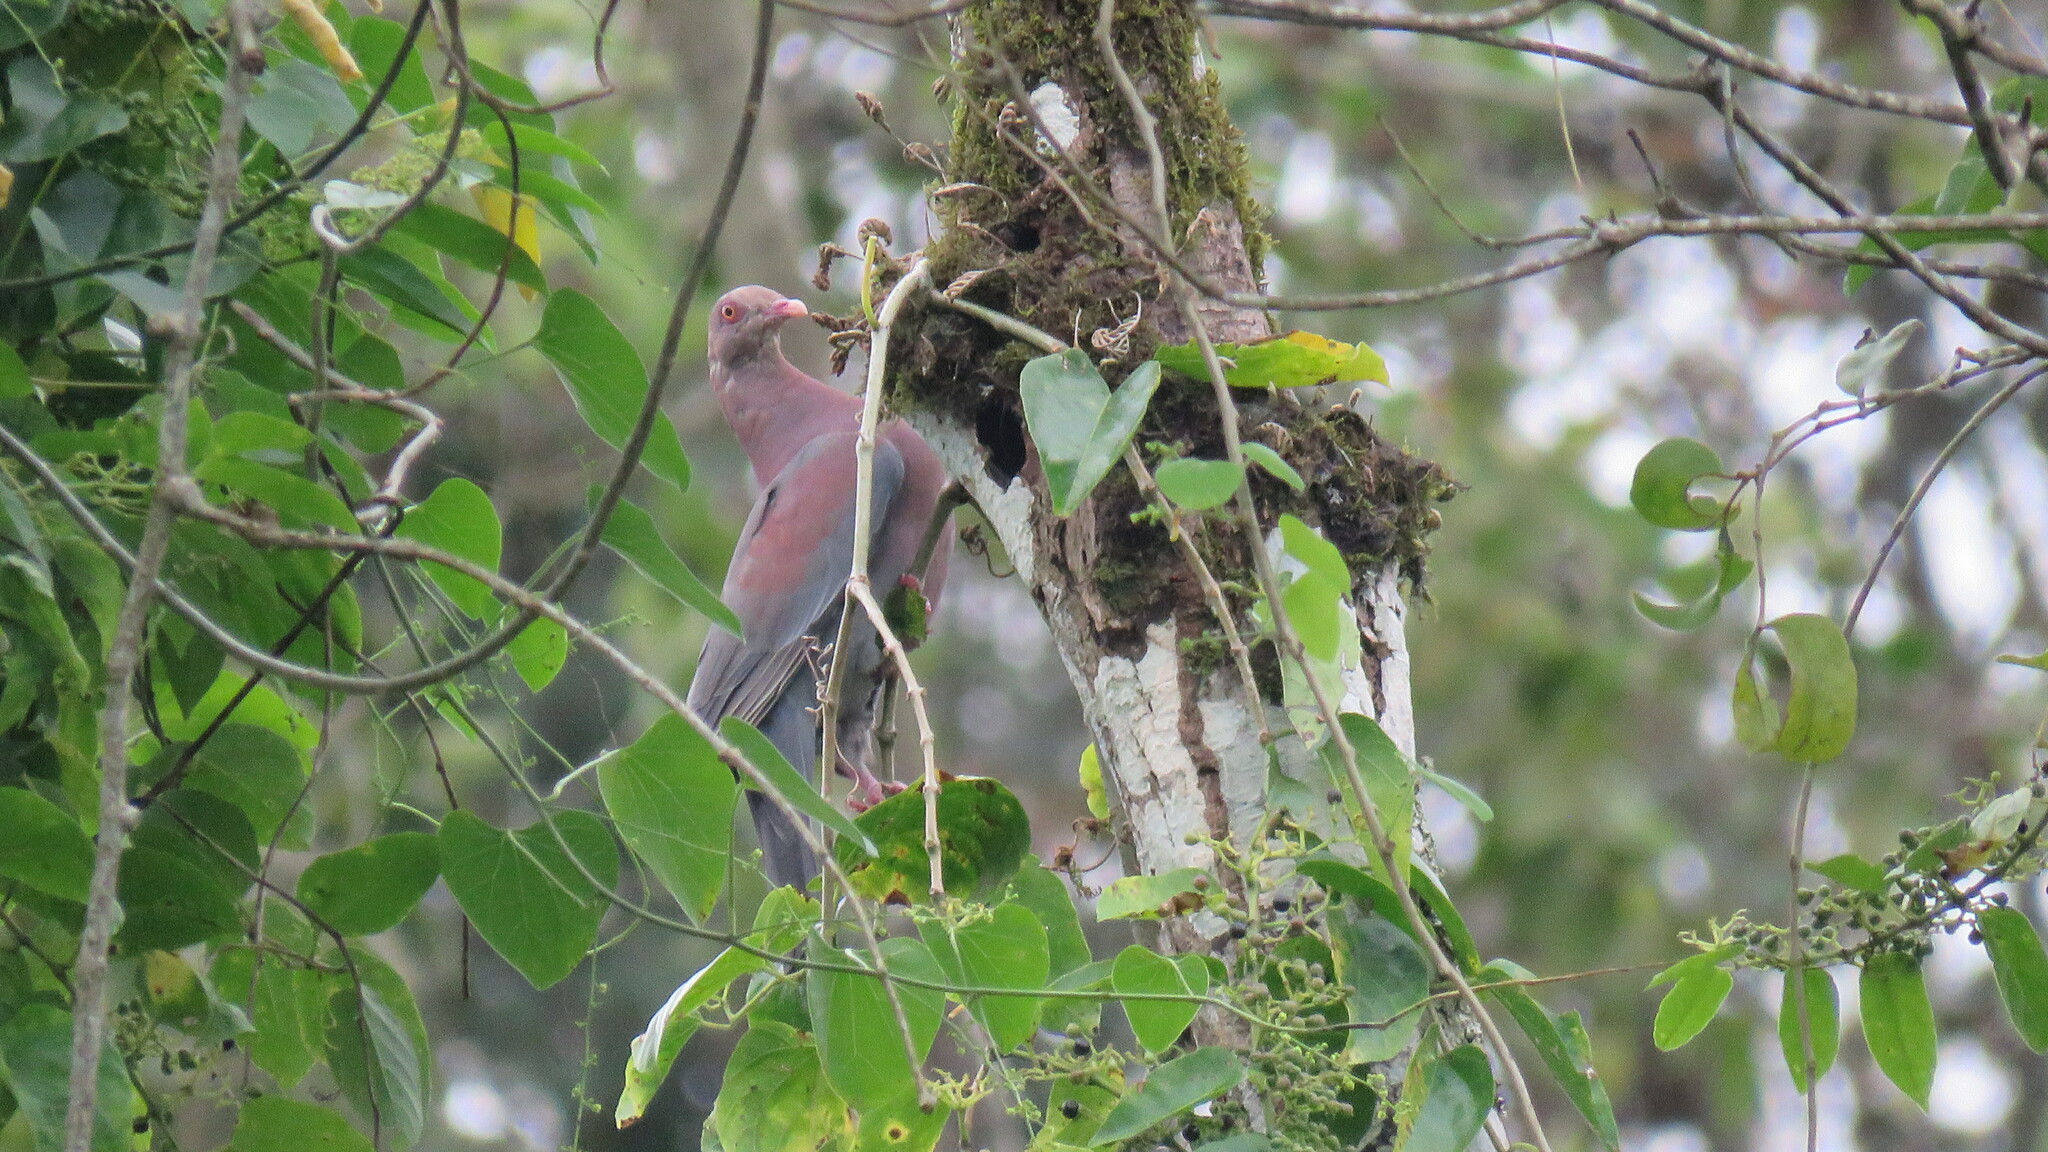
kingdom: Animalia
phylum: Chordata
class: Aves
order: Columbiformes
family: Columbidae
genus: Patagioenas
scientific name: Patagioenas flavirostris
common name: Red-billed pigeon
